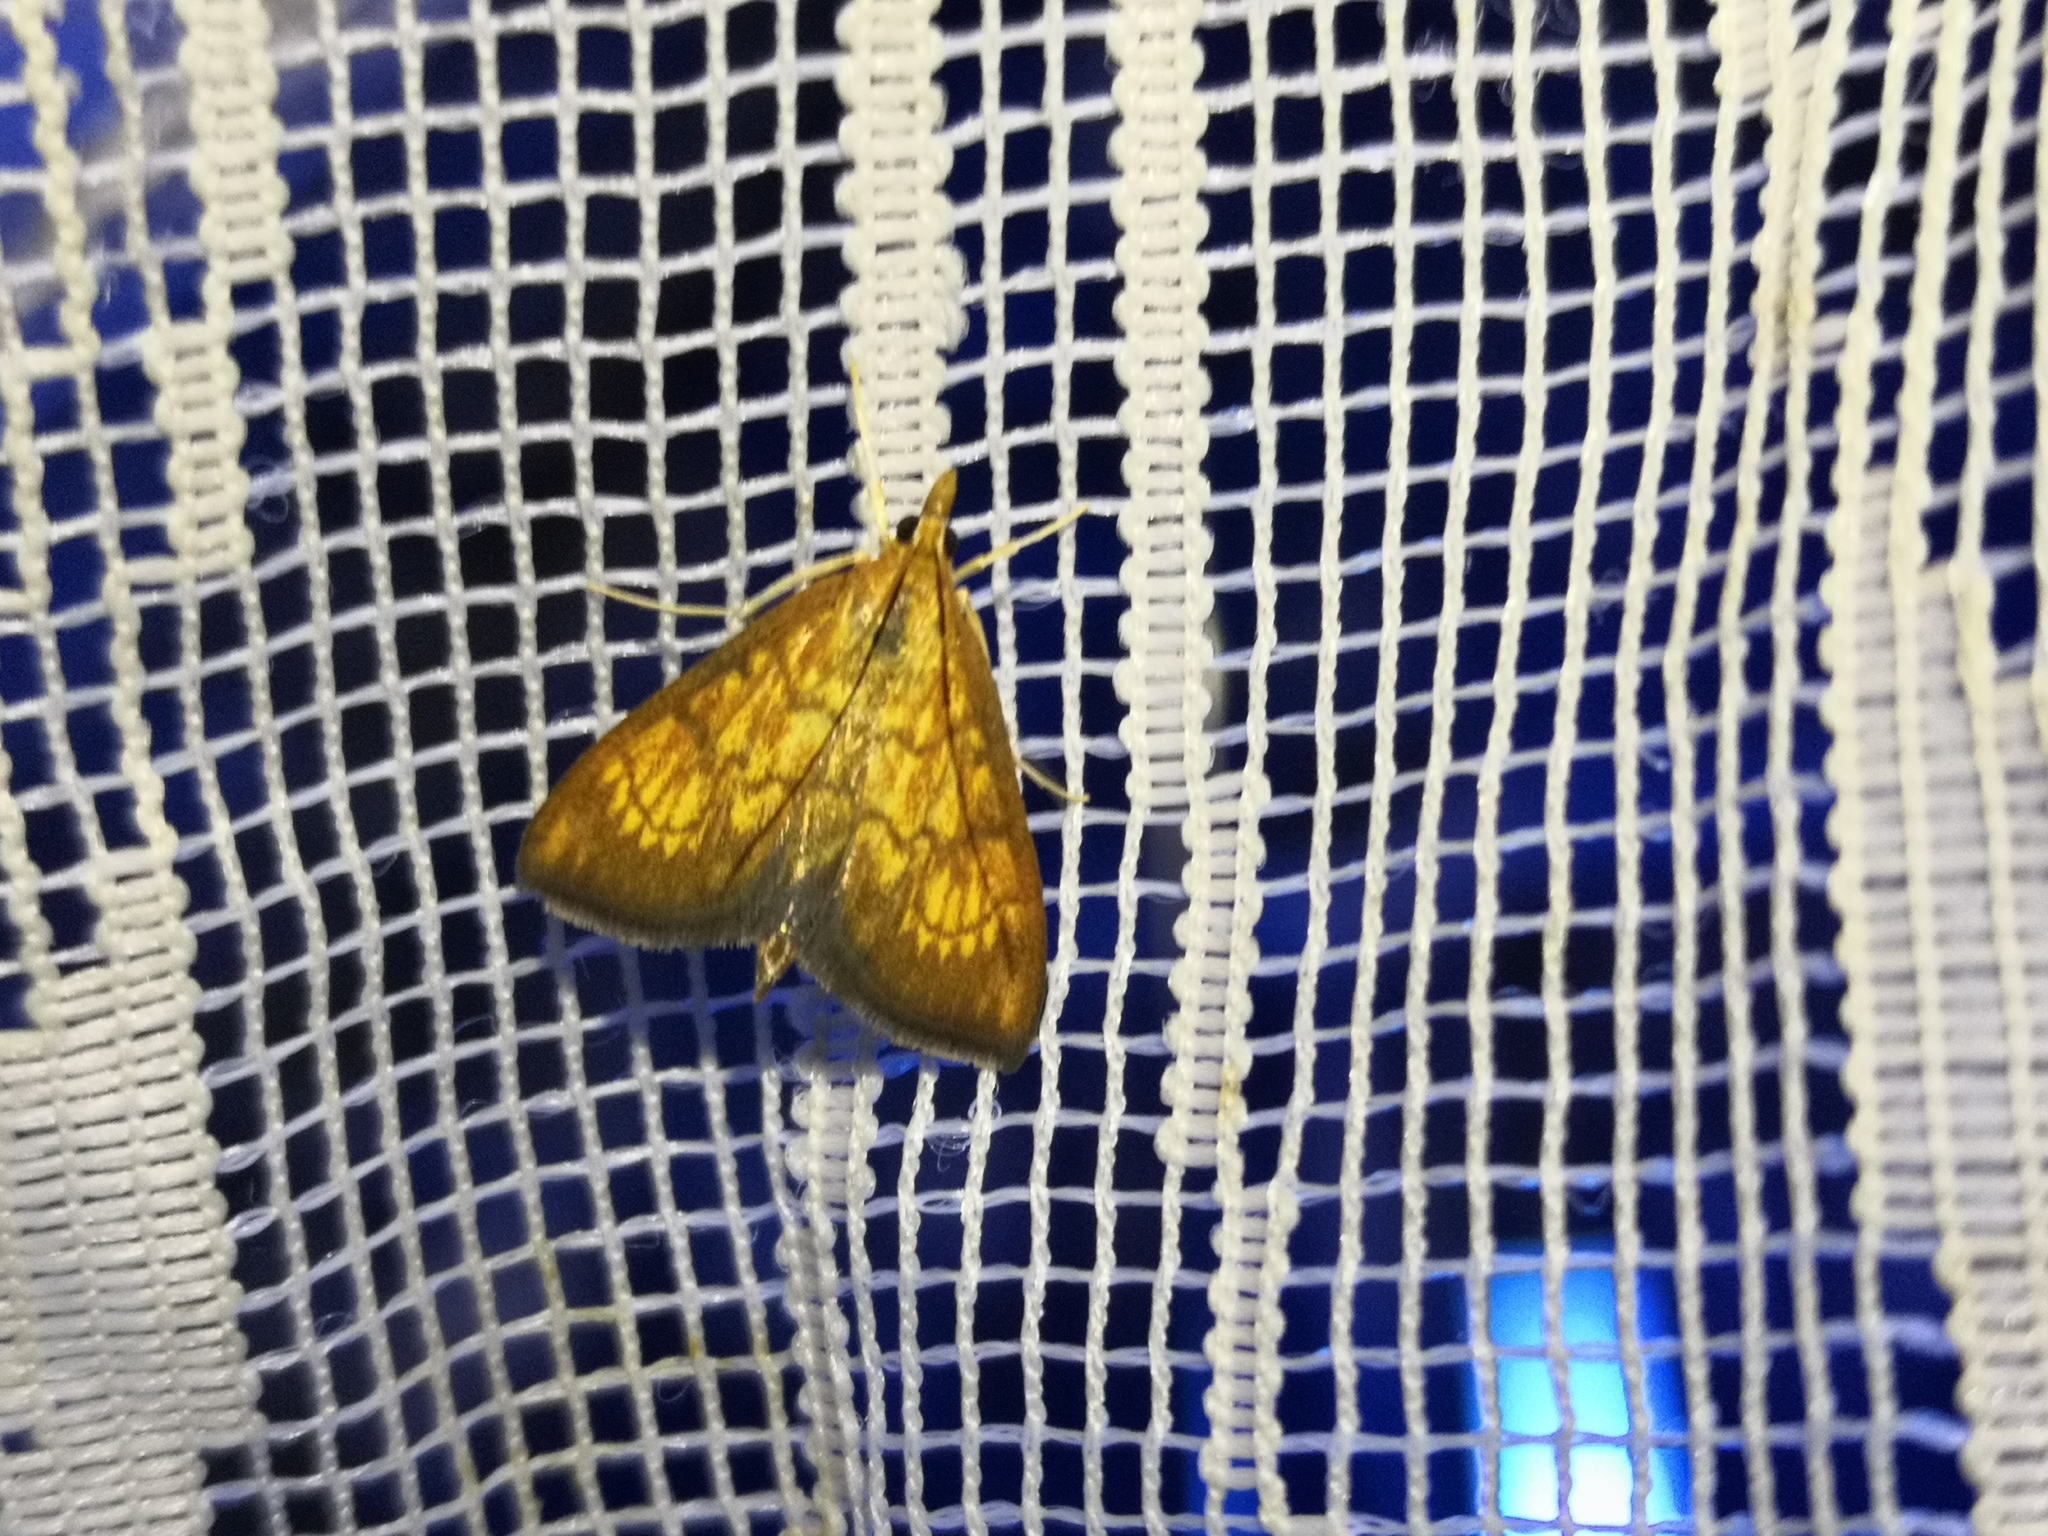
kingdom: Animalia
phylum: Arthropoda
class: Insecta
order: Lepidoptera
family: Crambidae
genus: Ecpyrrhorrhoe
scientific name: Ecpyrrhorrhoe rubiginalis
